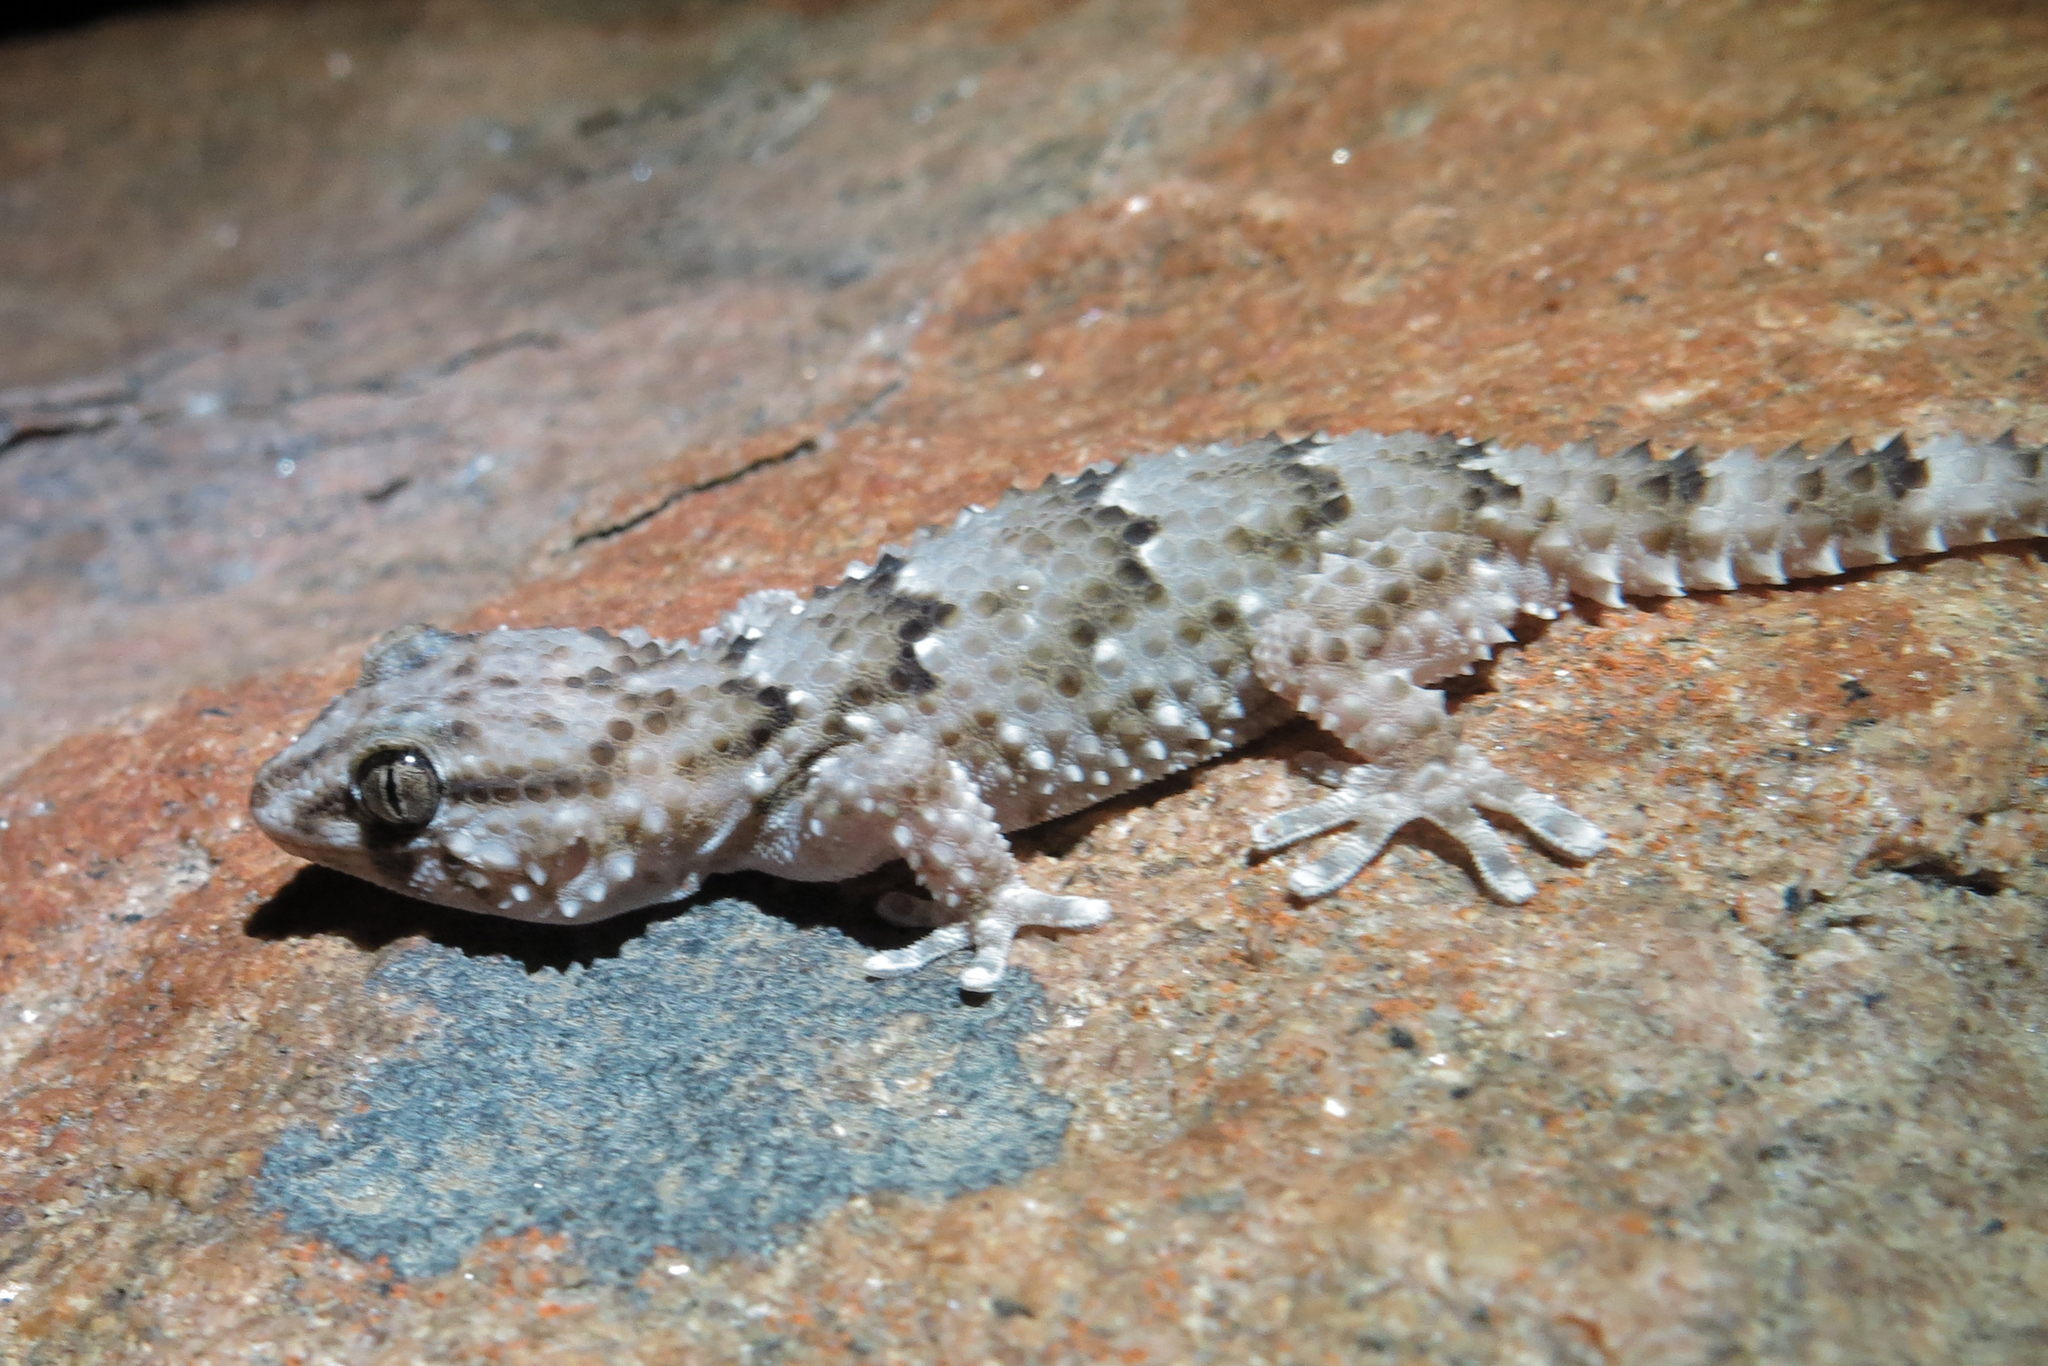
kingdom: Animalia
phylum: Chordata
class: Squamata
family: Gekkonidae
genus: Chondrodactylus
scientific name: Chondrodactylus bibronii
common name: Bibron's gecko
